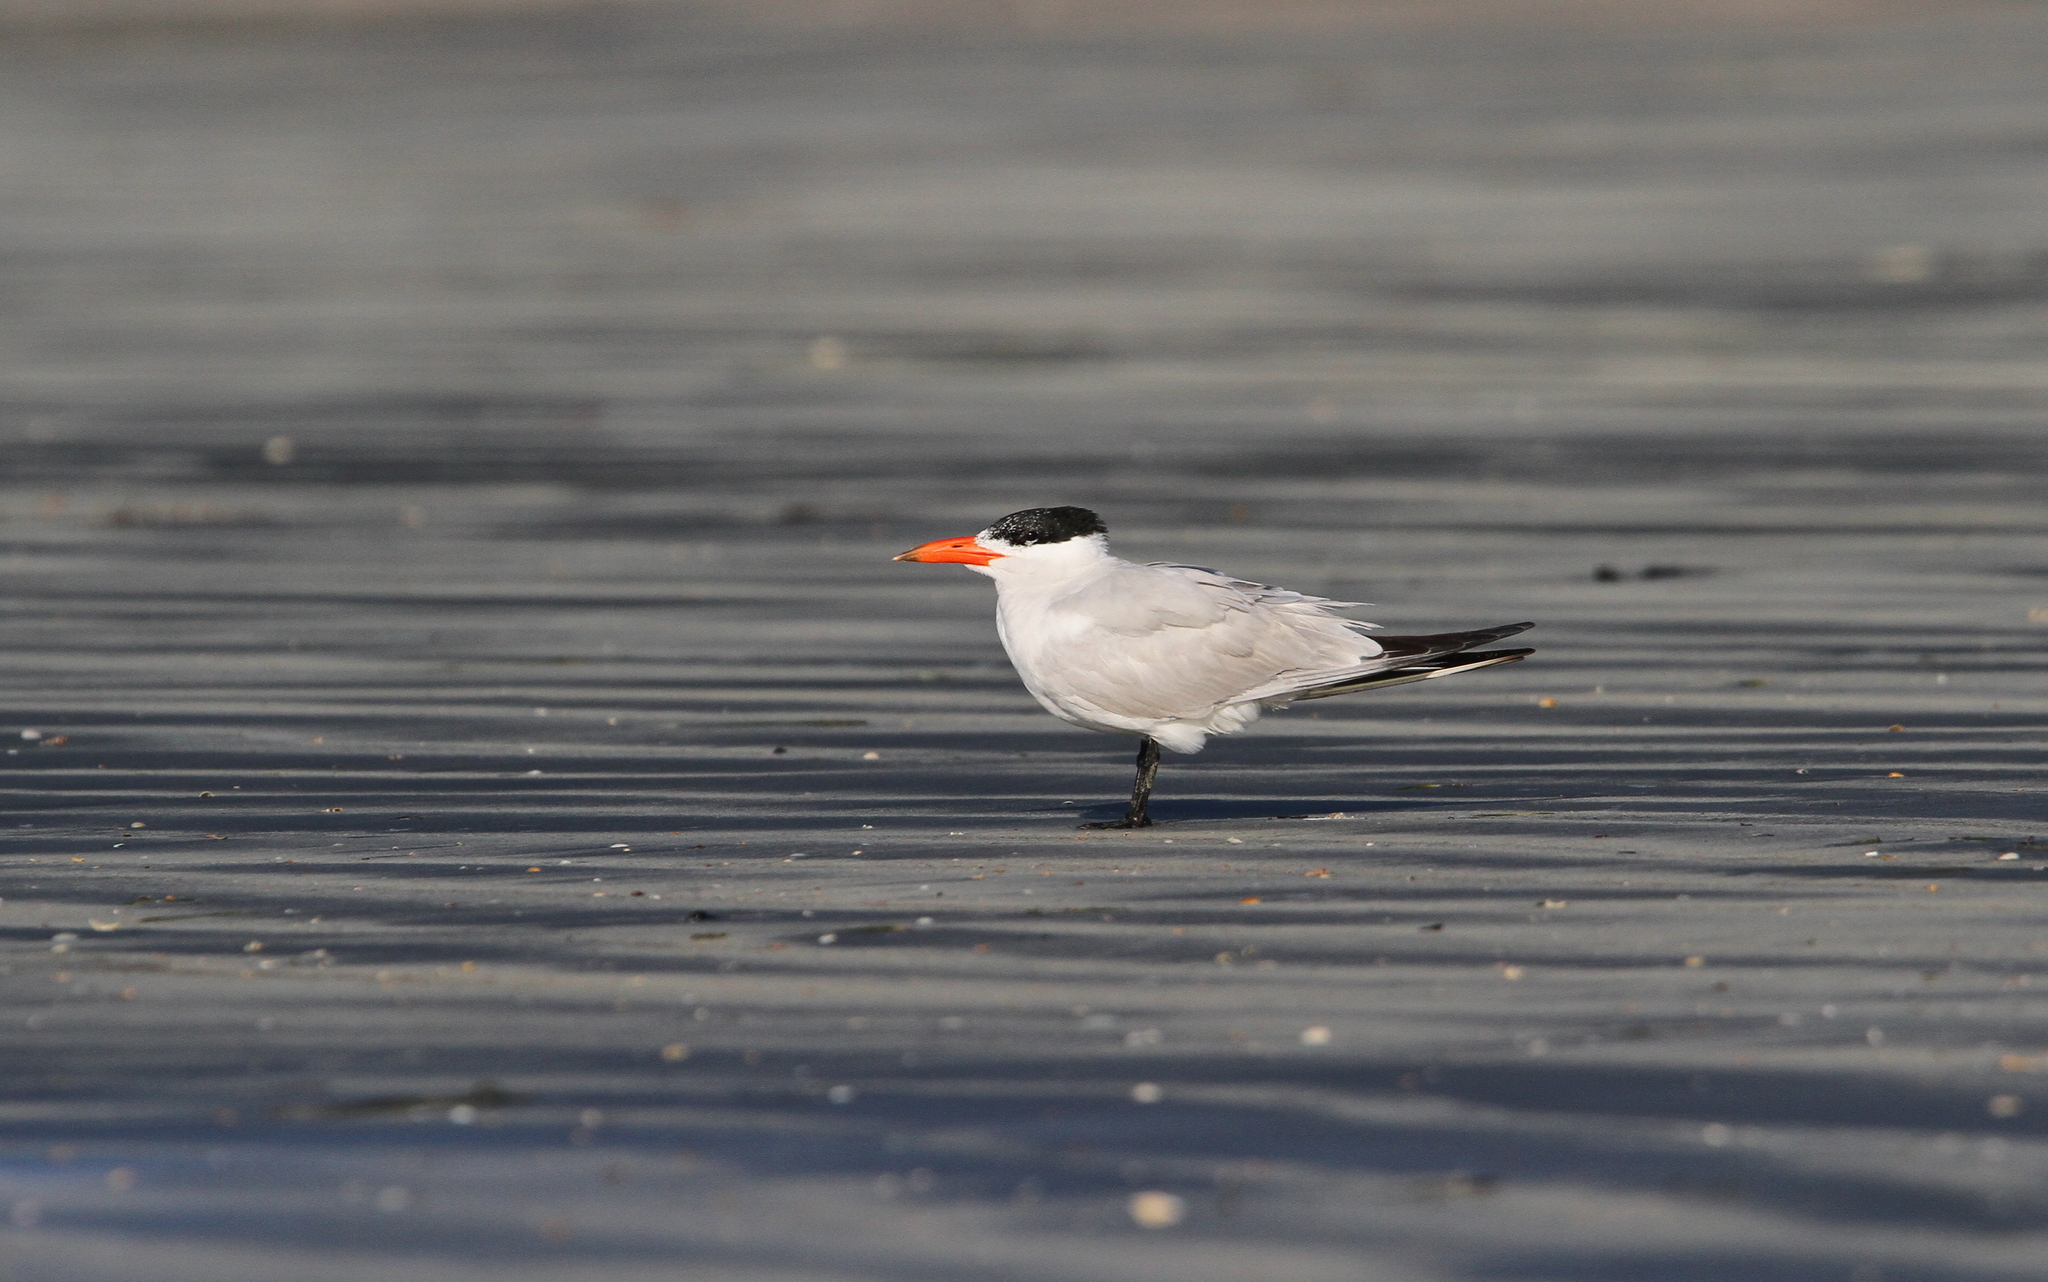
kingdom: Animalia
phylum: Chordata
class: Aves
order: Charadriiformes
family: Laridae
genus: Hydroprogne
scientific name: Hydroprogne caspia
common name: Caspian tern
